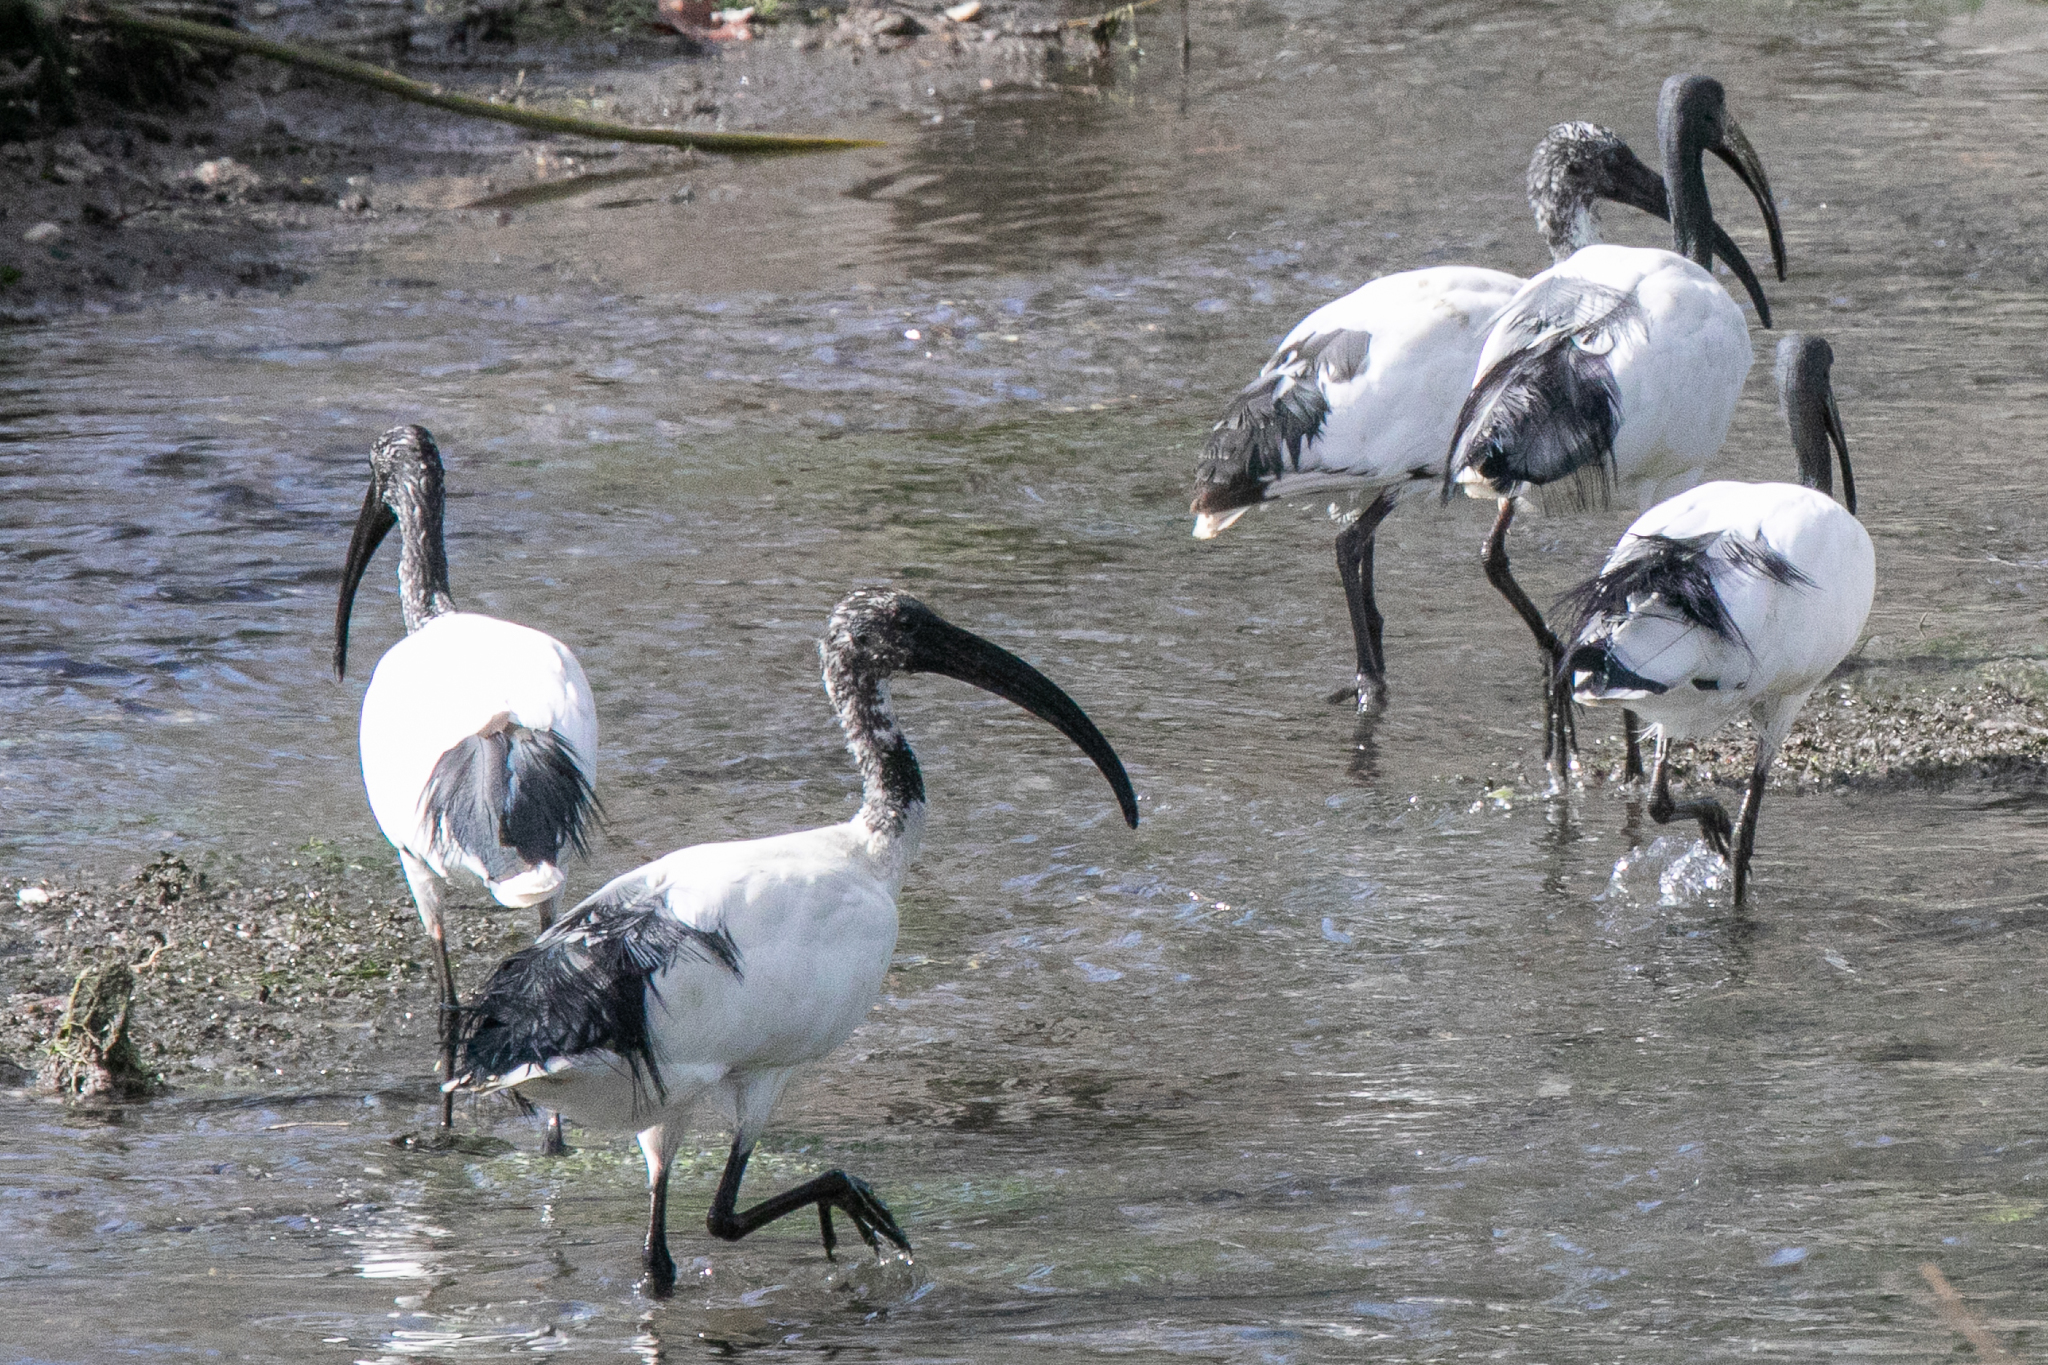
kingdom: Animalia
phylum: Chordata
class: Aves
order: Pelecaniformes
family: Threskiornithidae
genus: Threskiornis
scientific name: Threskiornis aethiopicus
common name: Sacred ibis
